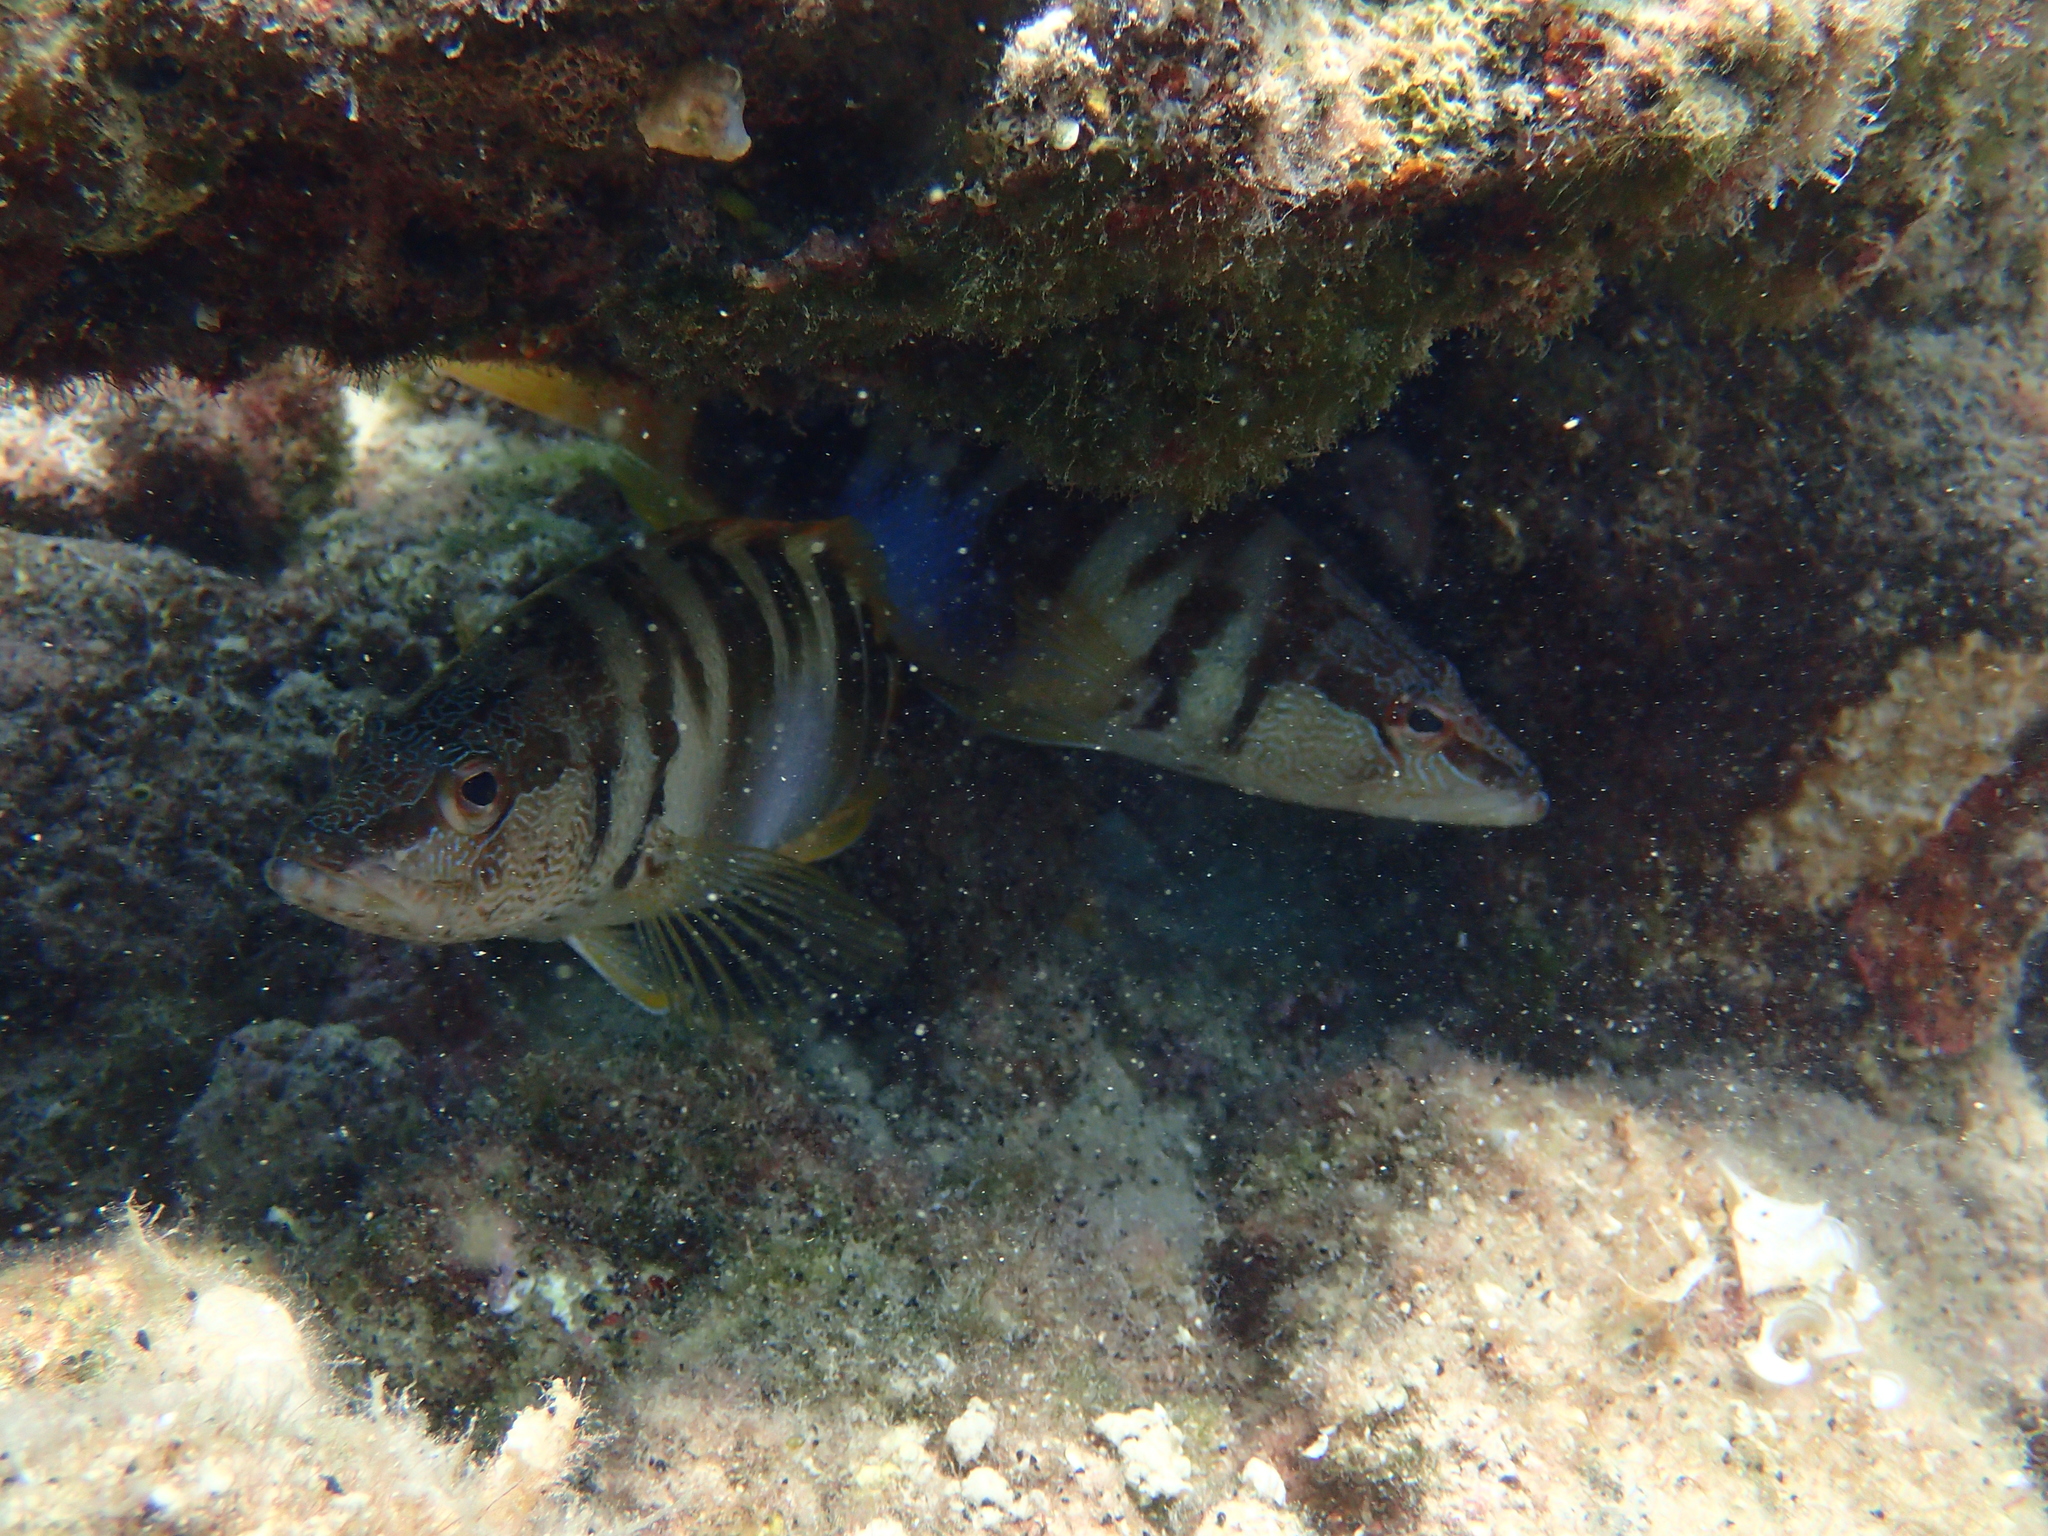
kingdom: Animalia
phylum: Chordata
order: Perciformes
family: Serranidae
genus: Serranus
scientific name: Serranus scriba
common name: Painted comber
